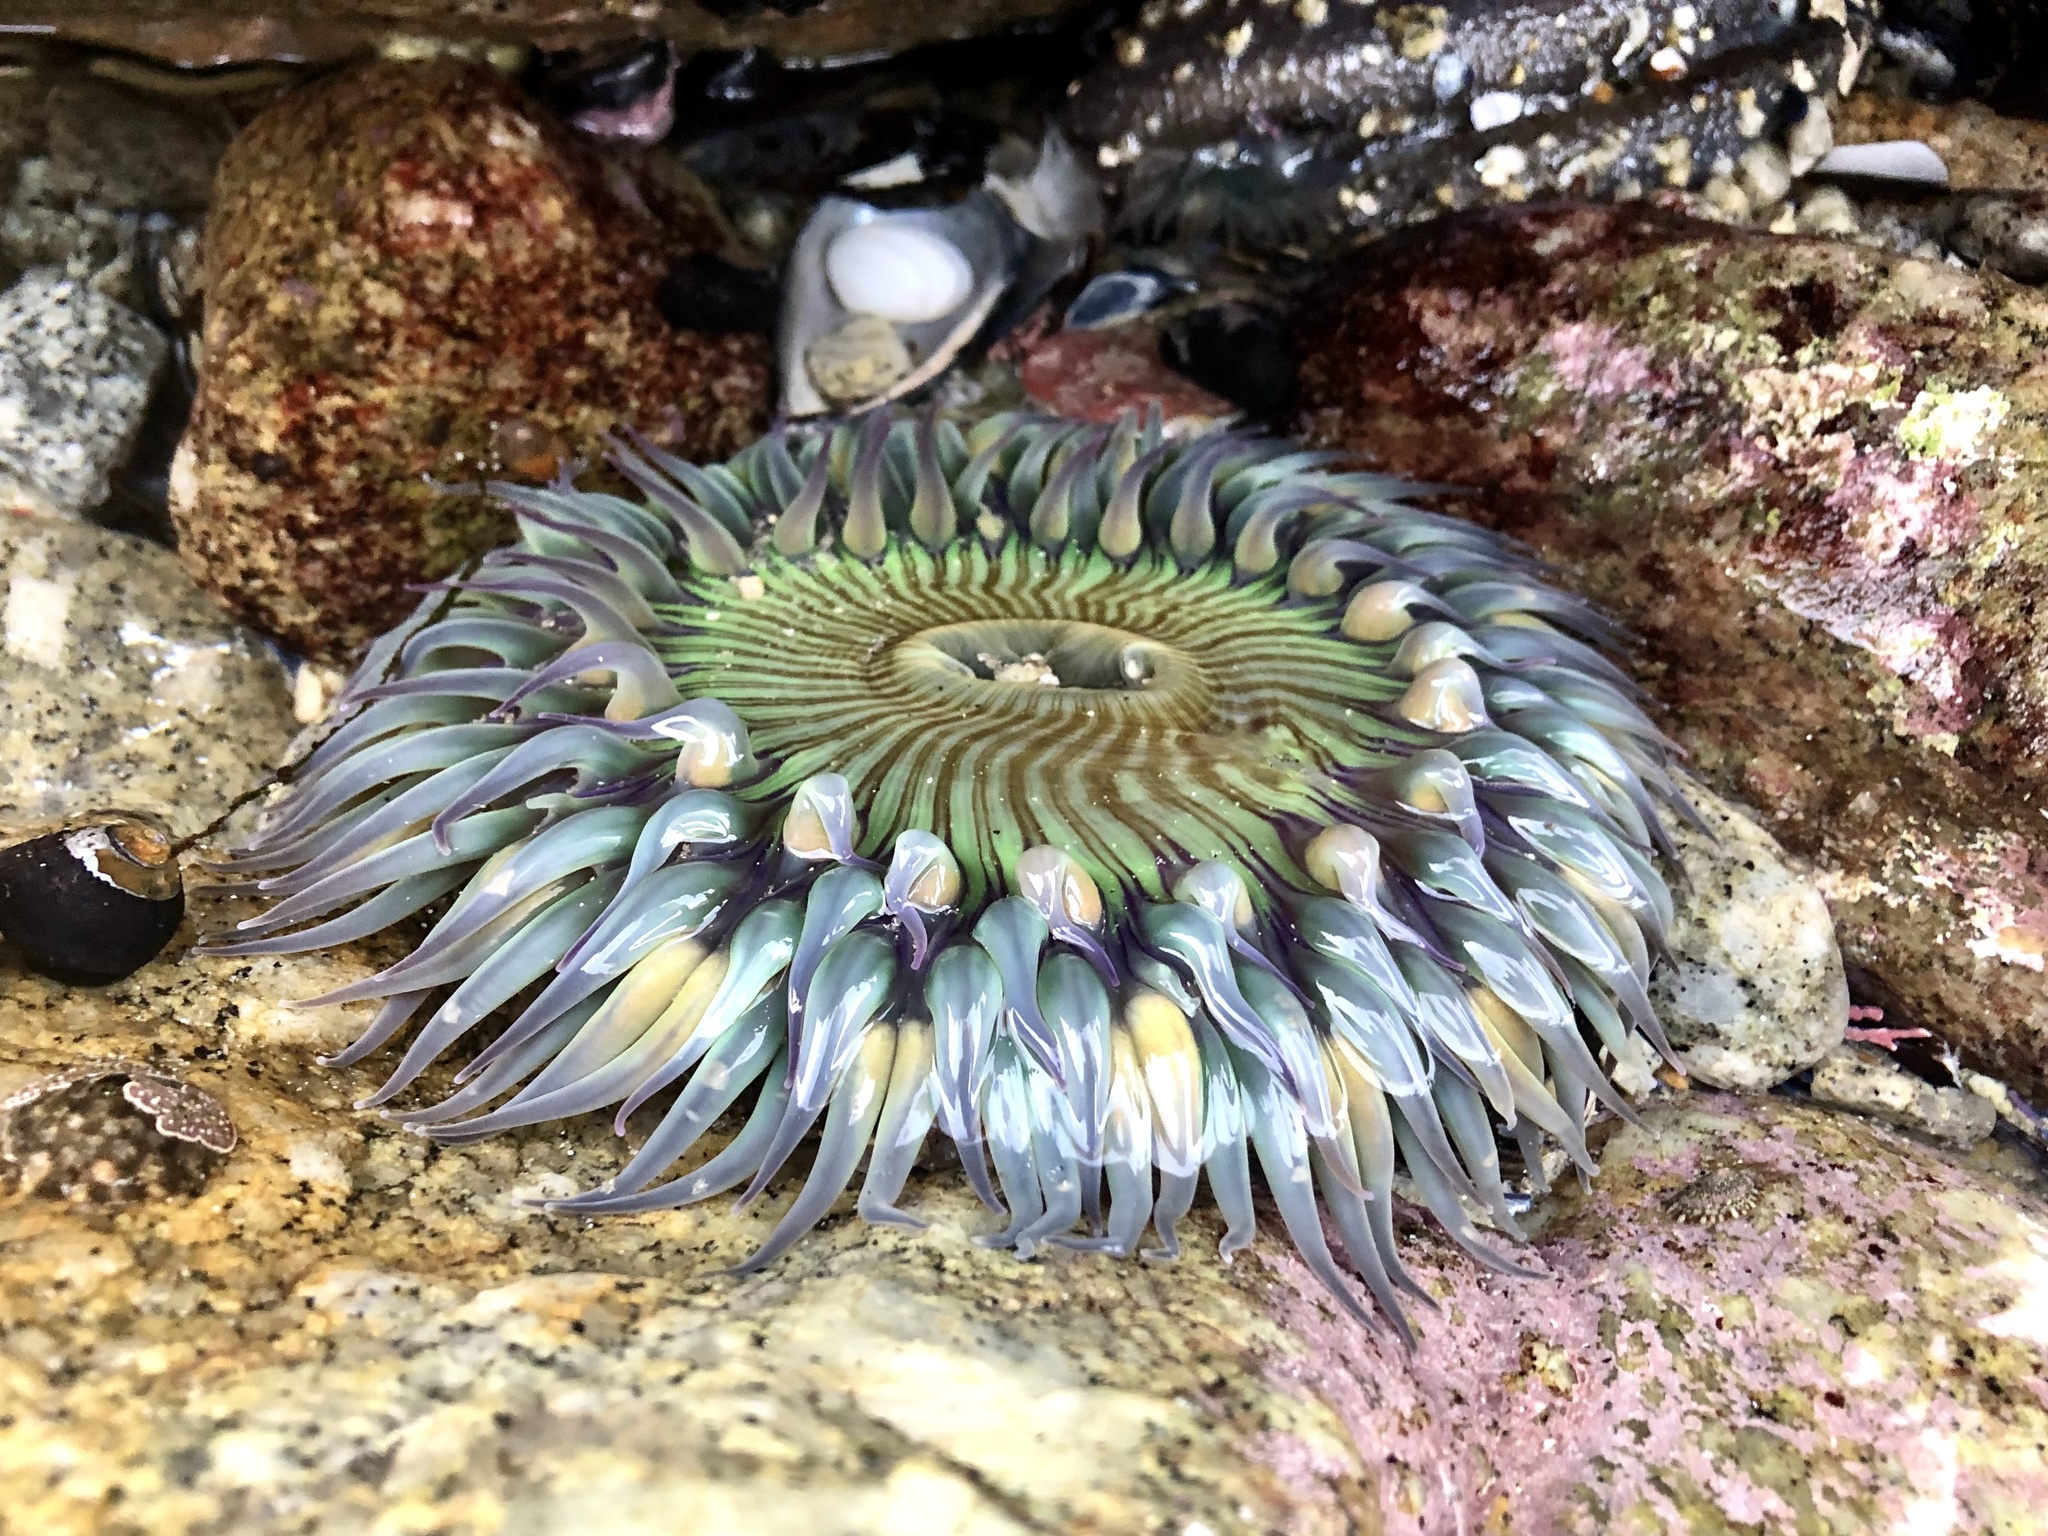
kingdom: Animalia
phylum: Cnidaria
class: Anthozoa
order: Actiniaria
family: Actiniidae
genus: Anthopleura
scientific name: Anthopleura sola
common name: Sun anemone
